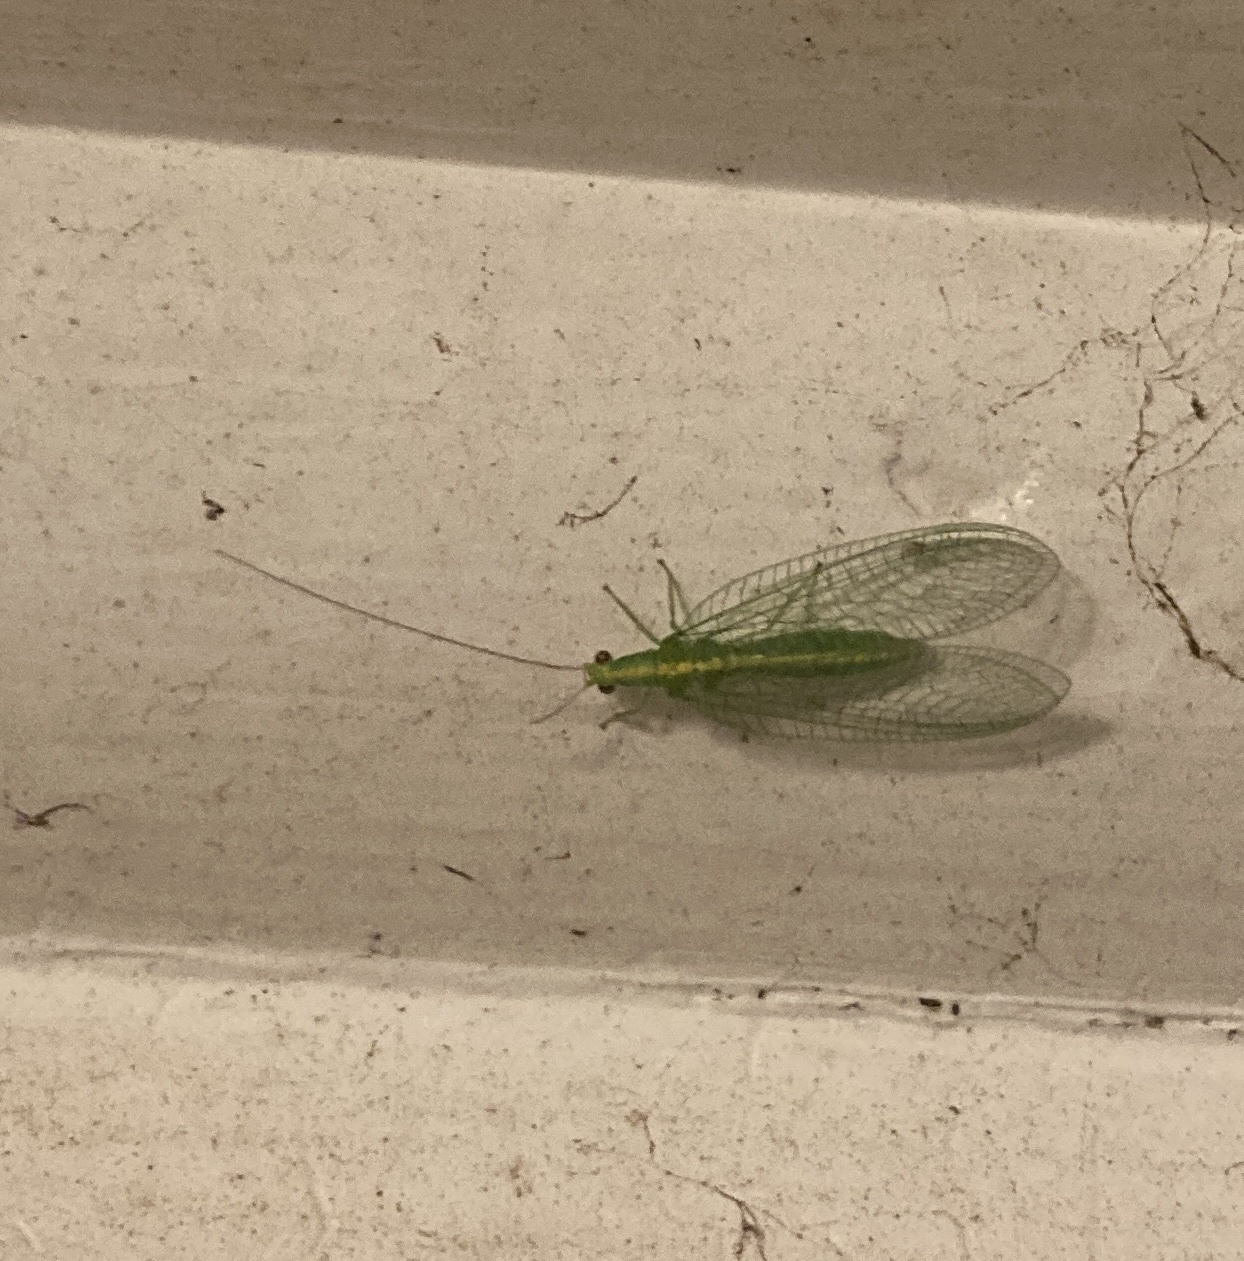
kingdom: Animalia
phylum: Arthropoda
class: Insecta
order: Neuroptera
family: Chrysopidae
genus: Mallada
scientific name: Mallada basalis
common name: Green lacewing
